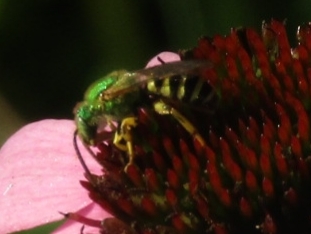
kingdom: Animalia
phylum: Arthropoda
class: Insecta
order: Hymenoptera
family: Halictidae
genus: Agapostemon
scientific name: Agapostemon
